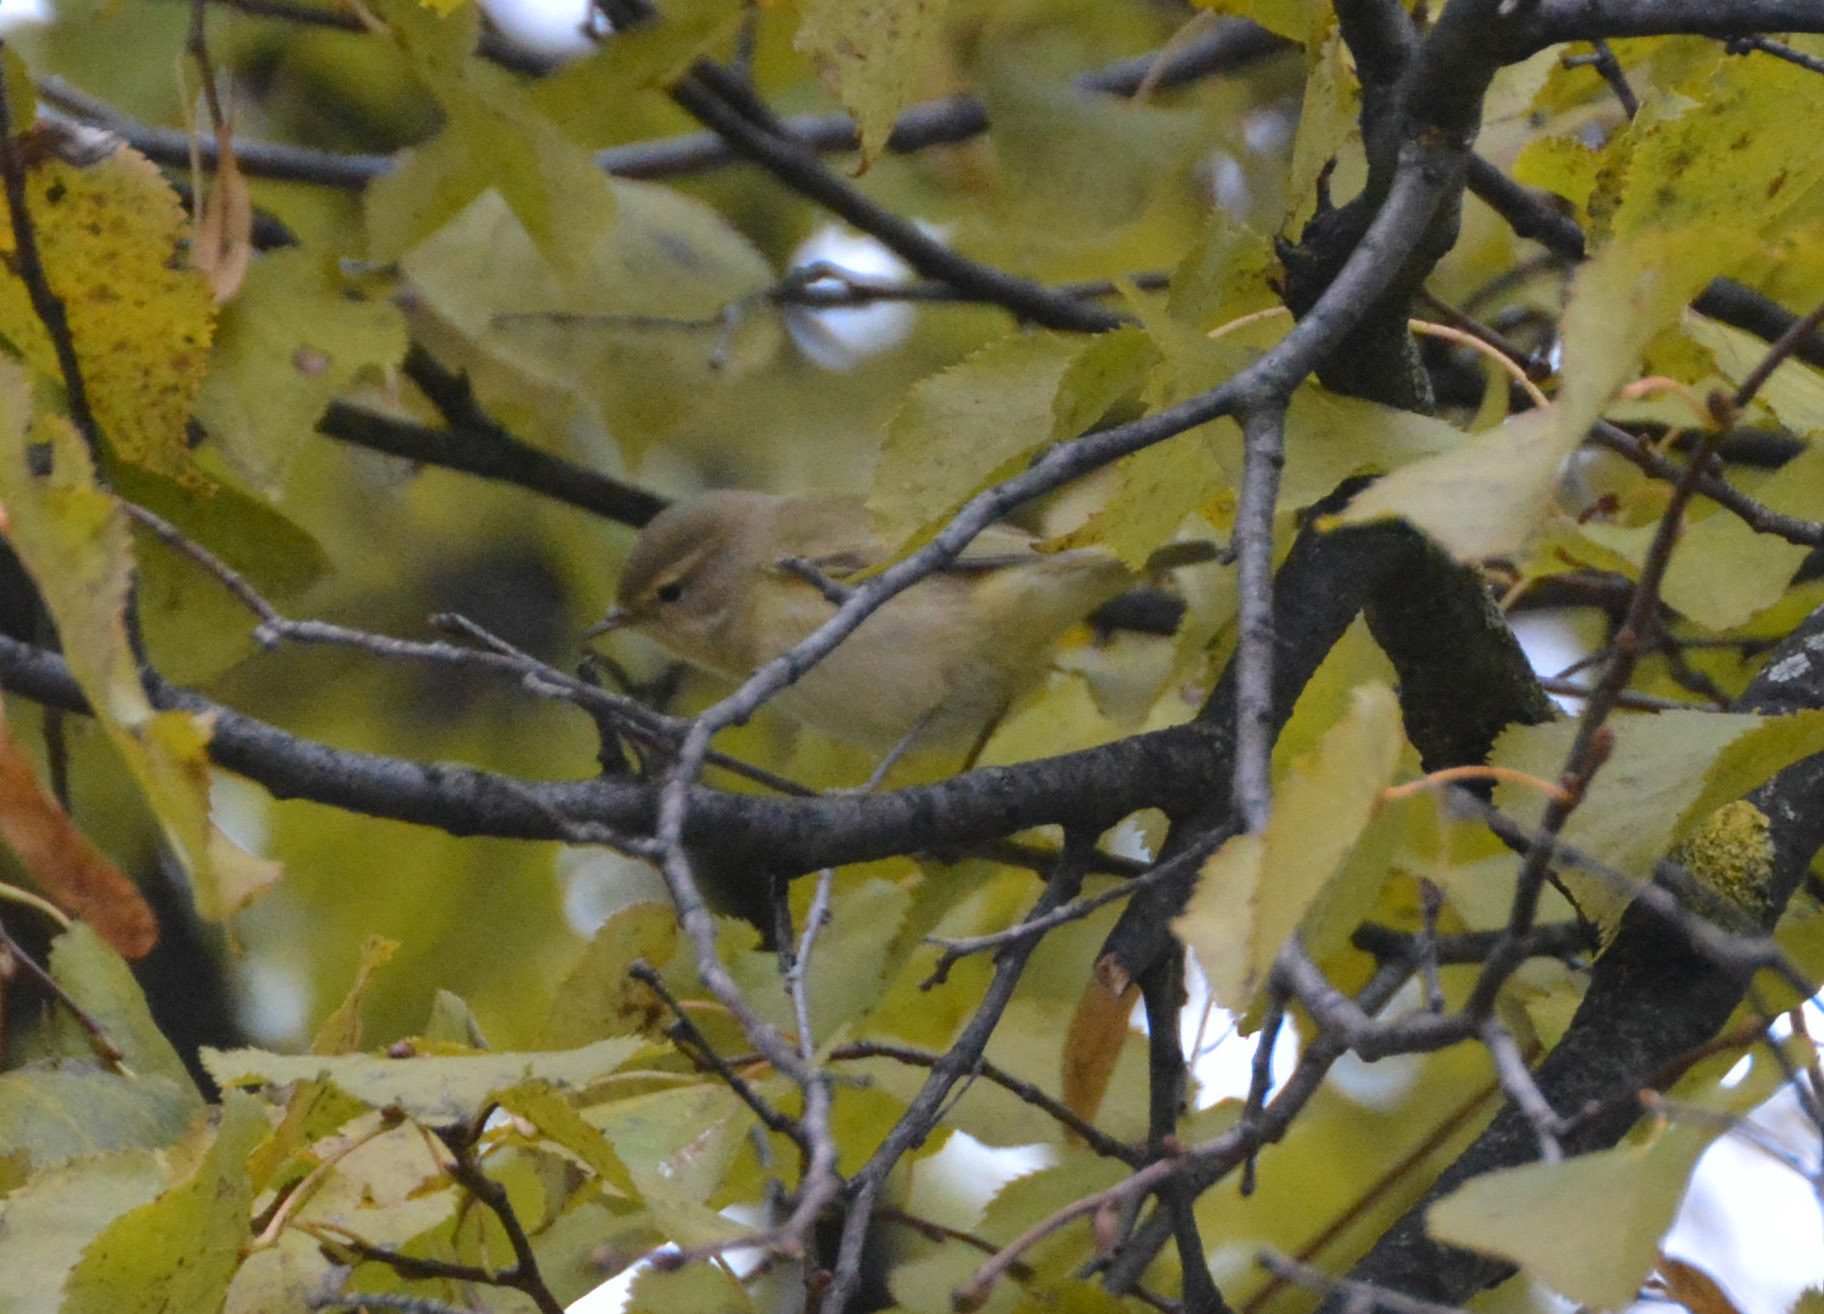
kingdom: Animalia
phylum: Chordata
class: Aves
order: Passeriformes
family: Phylloscopidae
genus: Phylloscopus
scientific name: Phylloscopus collybita
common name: Common chiffchaff
